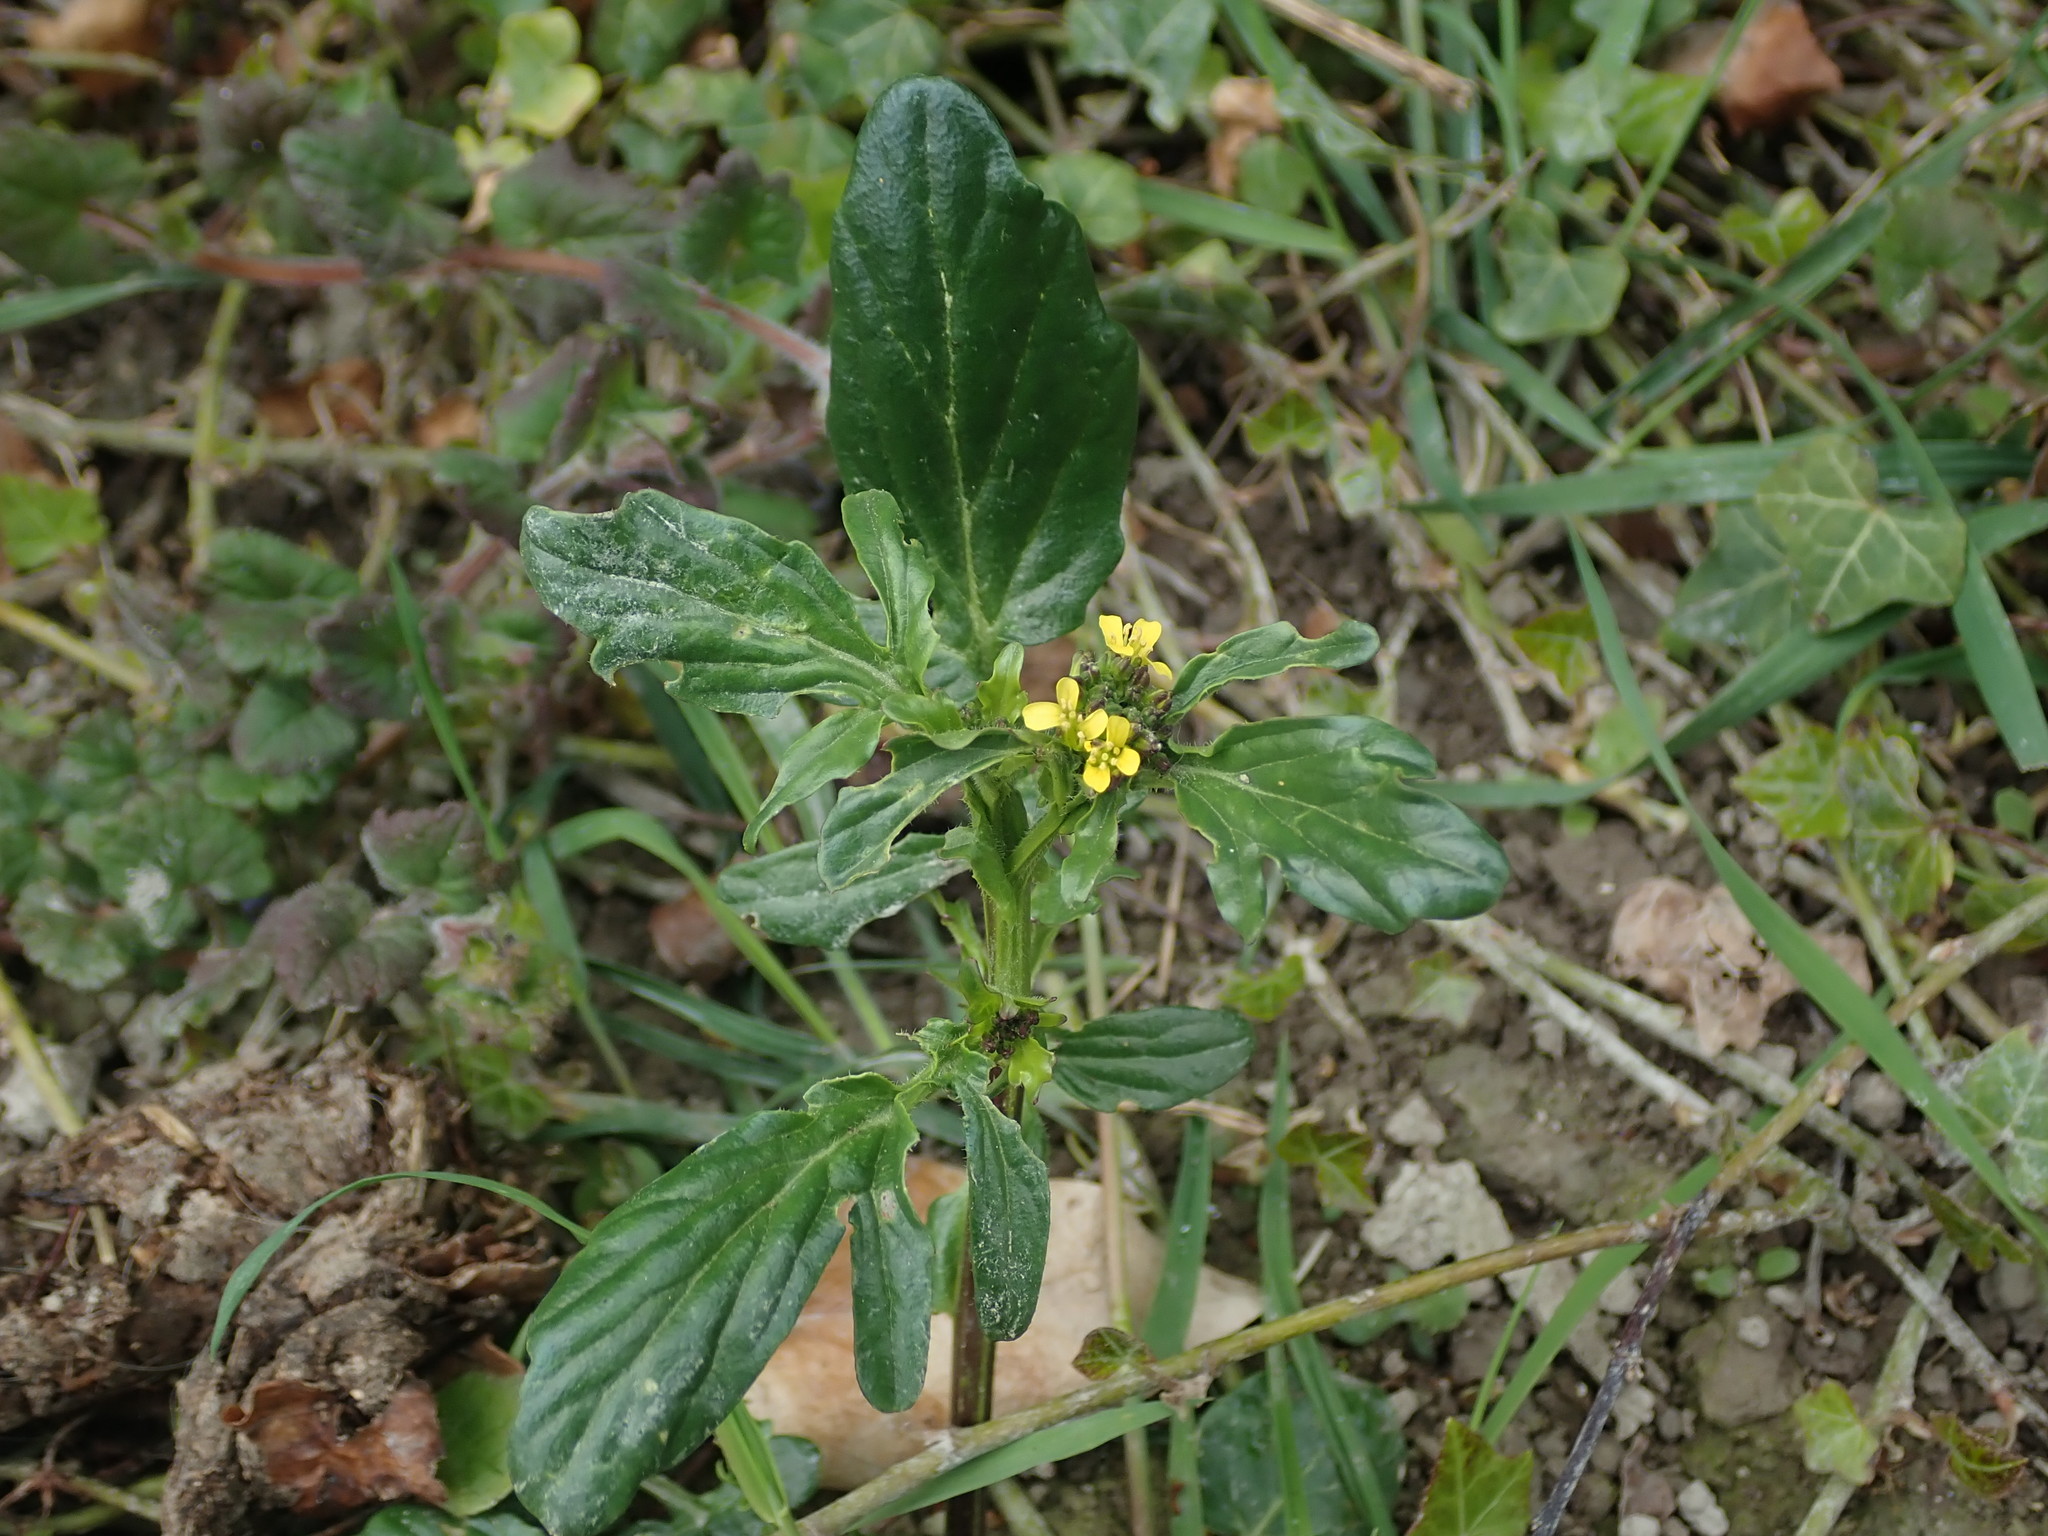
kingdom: Plantae
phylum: Tracheophyta
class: Magnoliopsida
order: Brassicales
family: Brassicaceae
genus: Barbarea
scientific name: Barbarea vulgaris
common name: Cressy-greens
